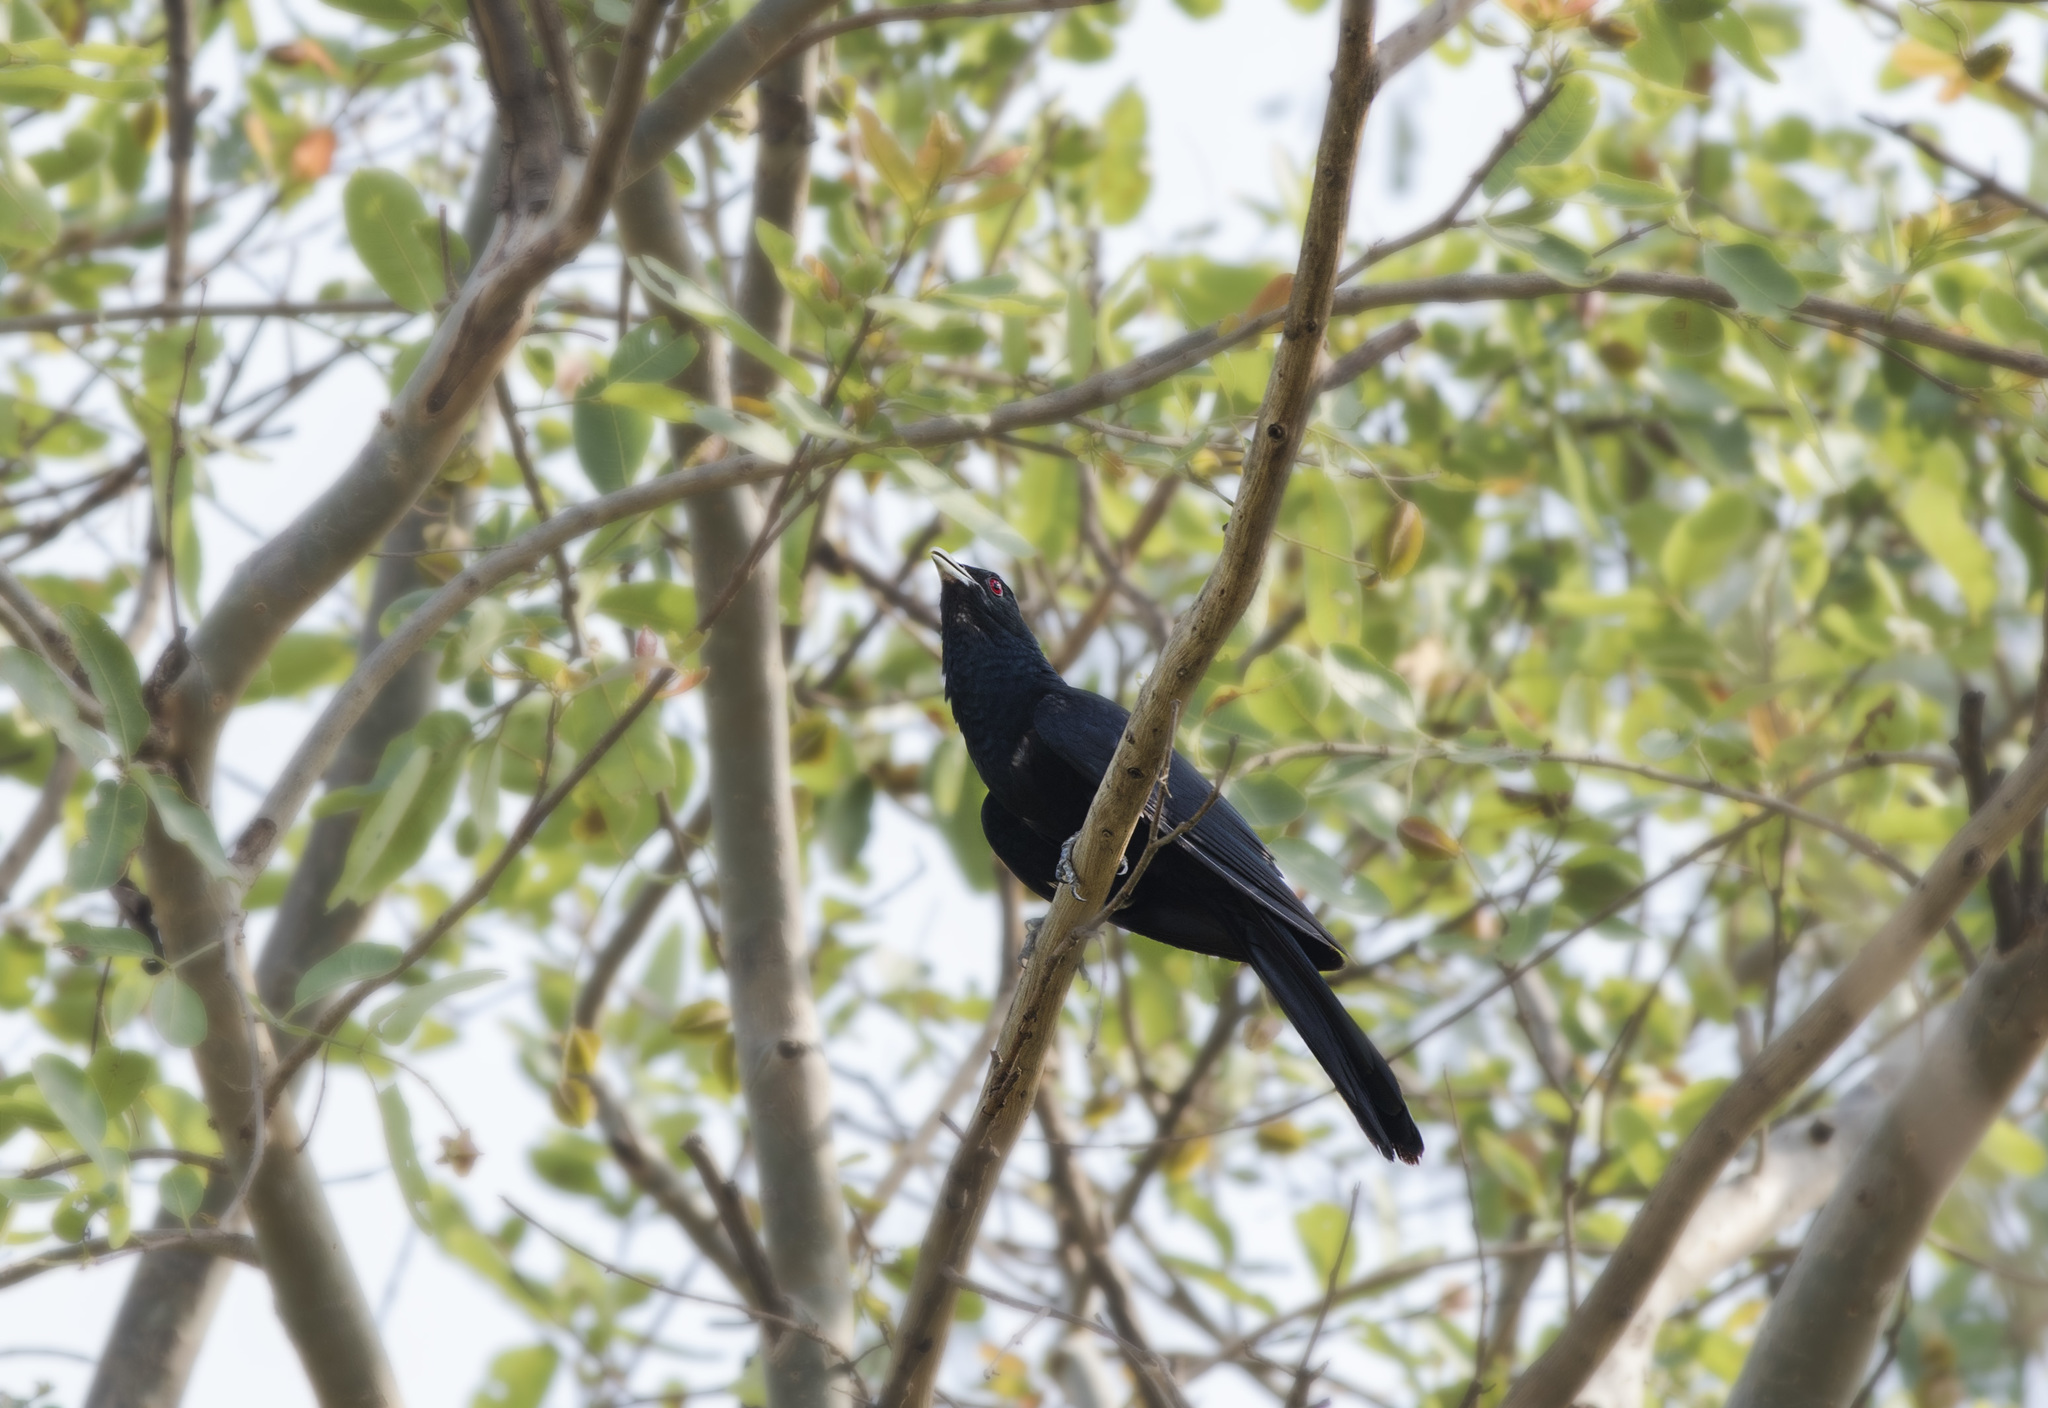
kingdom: Animalia
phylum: Chordata
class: Aves
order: Cuculiformes
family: Cuculidae
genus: Eudynamys
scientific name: Eudynamys scolopaceus
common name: Asian koel
